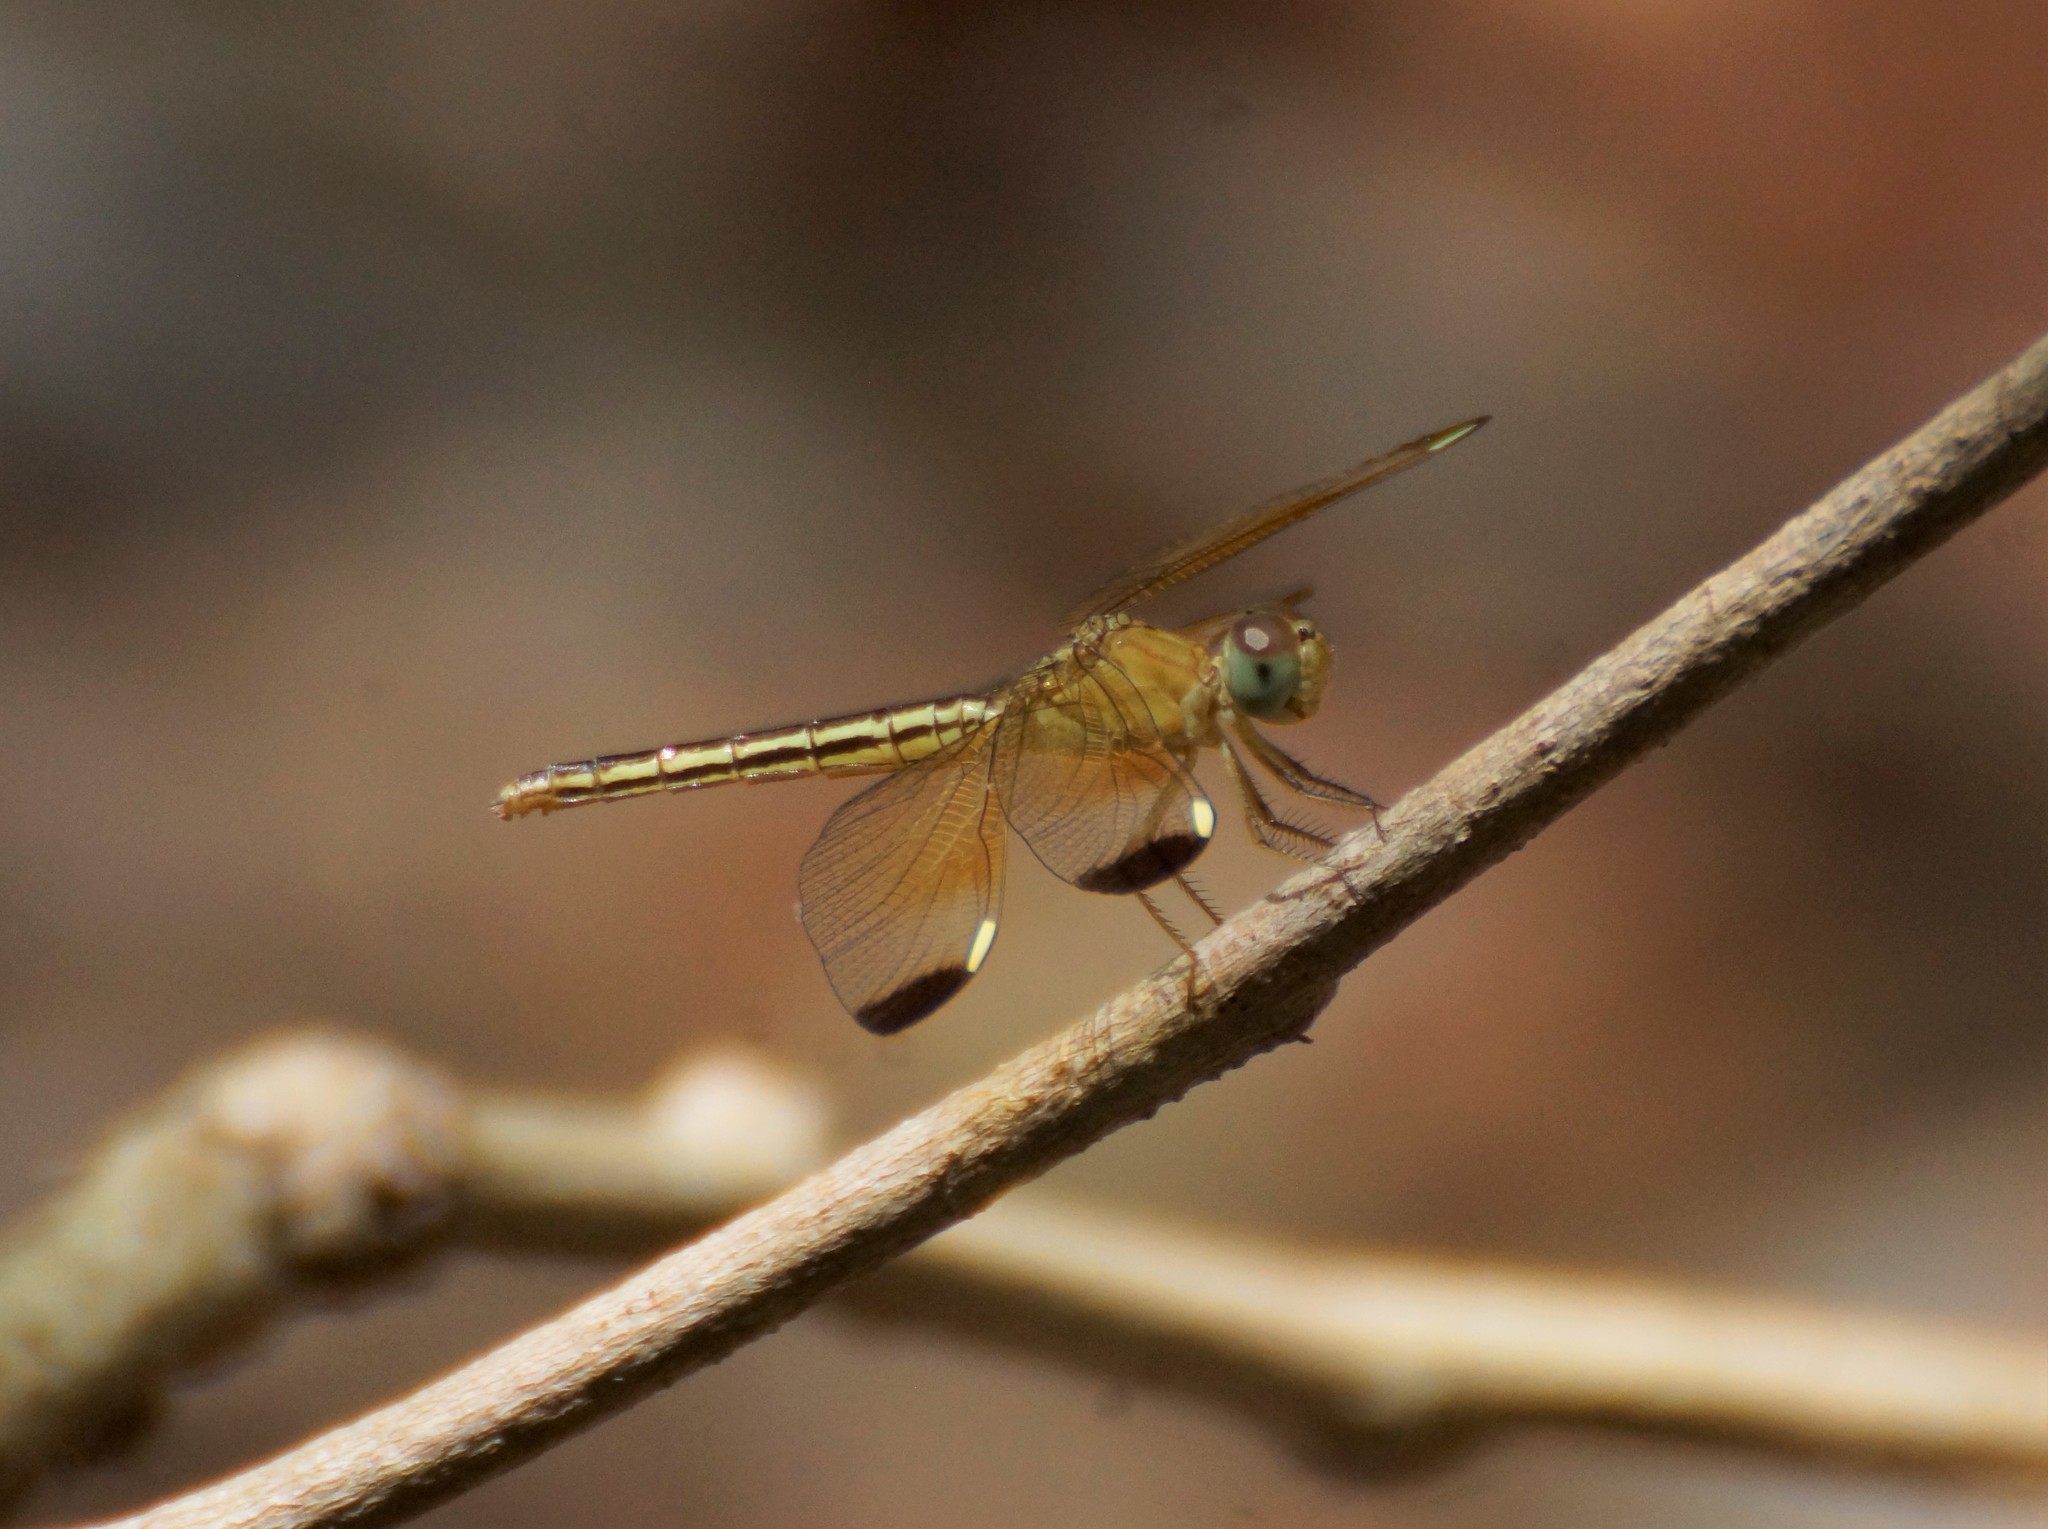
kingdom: Animalia
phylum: Arthropoda
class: Insecta
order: Odonata
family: Libellulidae
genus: Neurothemis
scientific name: Neurothemis stigmatizans
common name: Painted grasshawk
